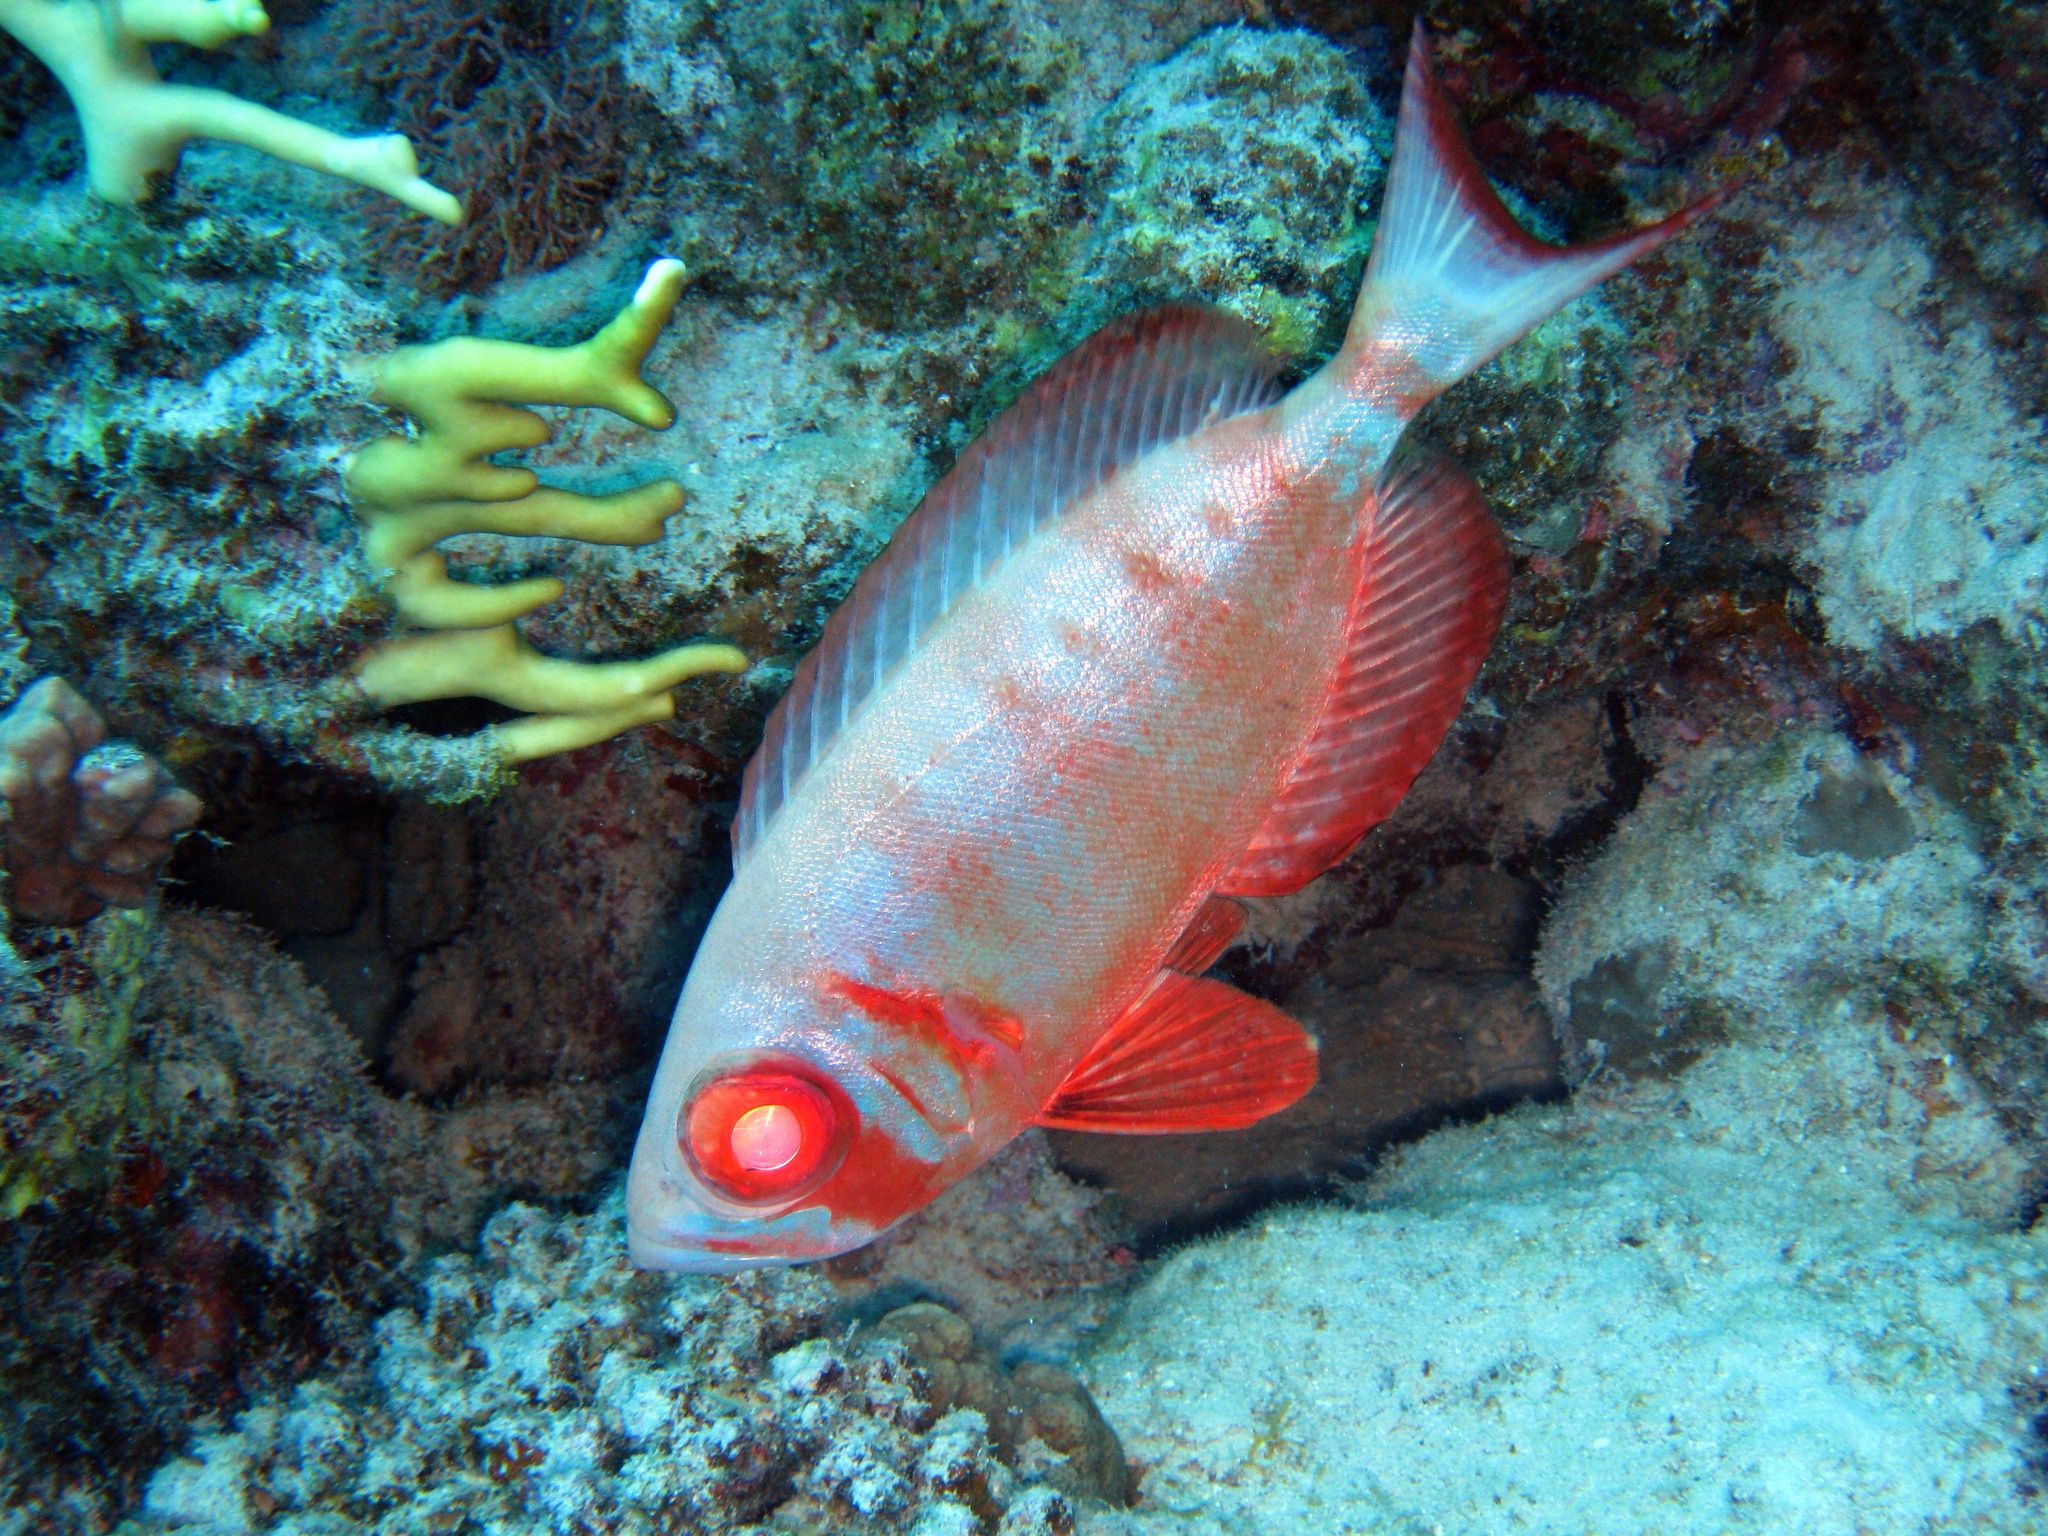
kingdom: Animalia
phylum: Chordata
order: Perciformes
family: Priacanthidae
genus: Priacanthus
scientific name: Priacanthus hamrur
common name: Moontail bullseye
